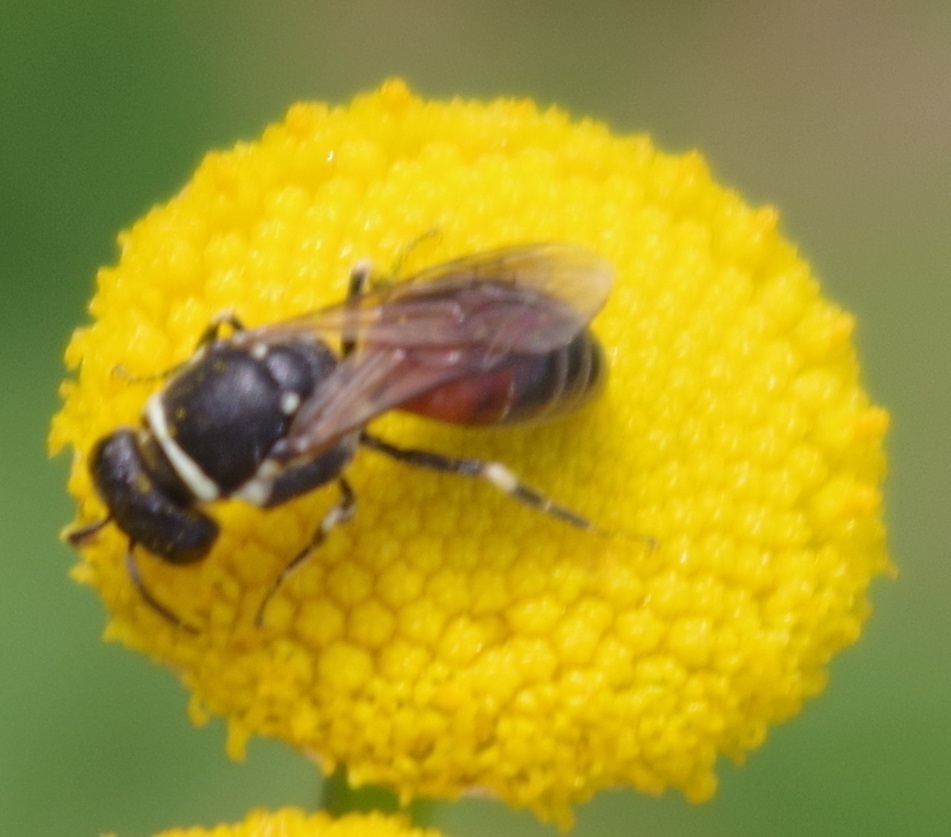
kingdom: Animalia
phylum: Arthropoda
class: Insecta
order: Hymenoptera
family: Colletidae
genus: Hylaeus
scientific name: Hylaeus variegatus
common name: Masked bee
